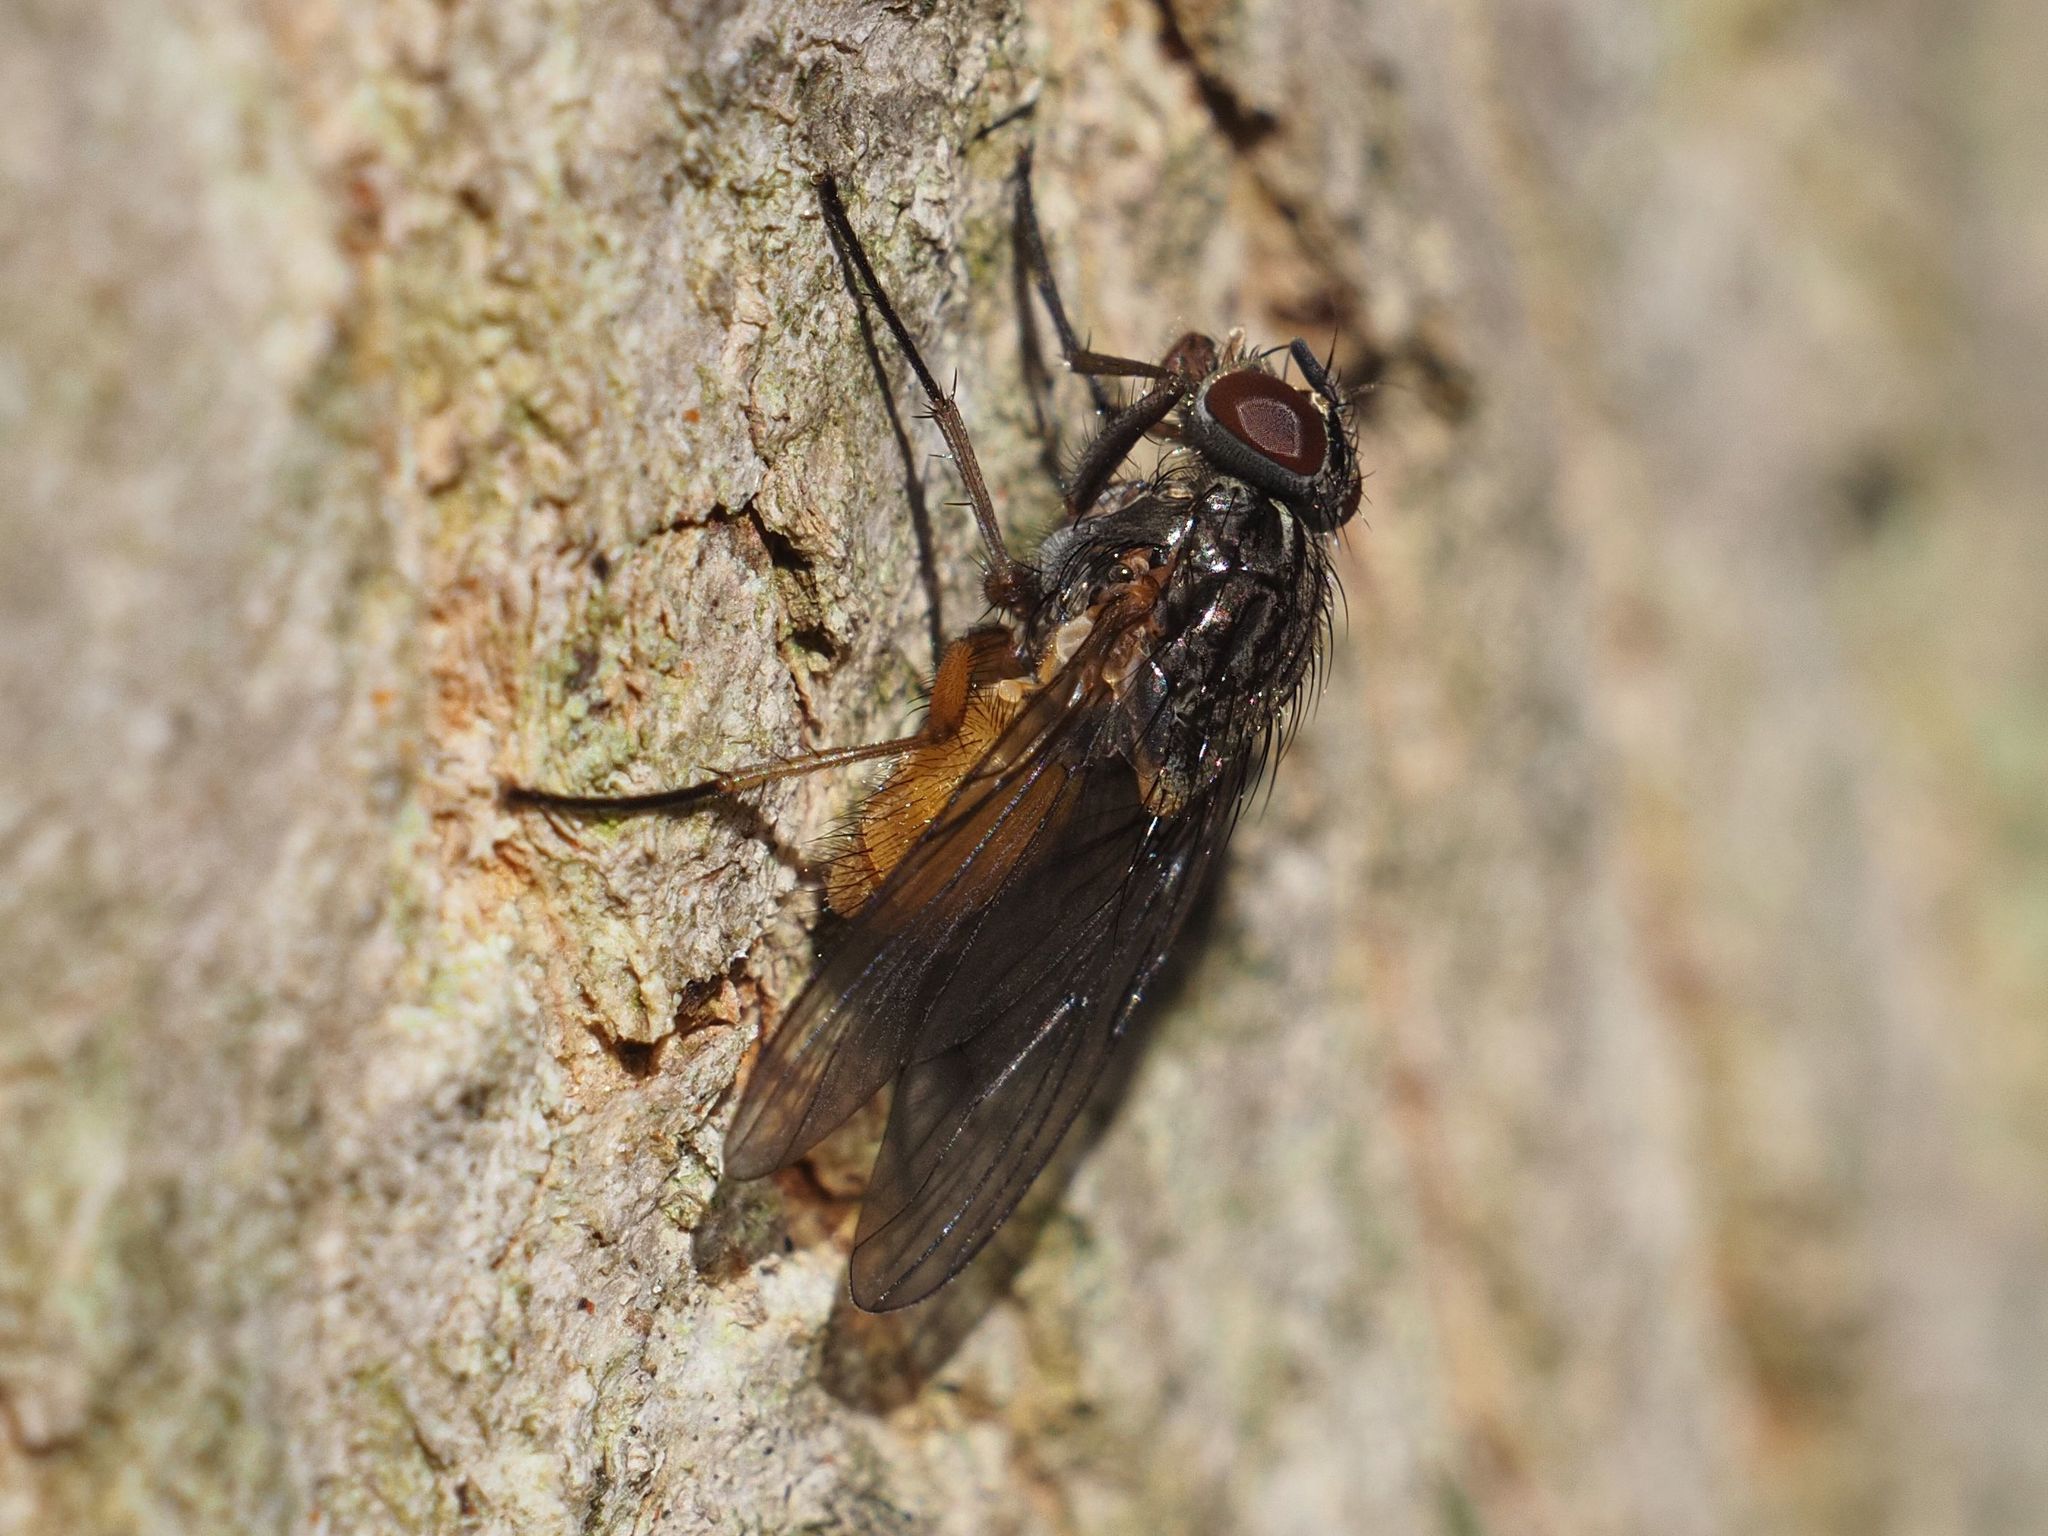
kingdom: Animalia
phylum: Arthropoda
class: Insecta
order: Diptera
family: Muscidae
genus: Phaonia
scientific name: Phaonia subventa
